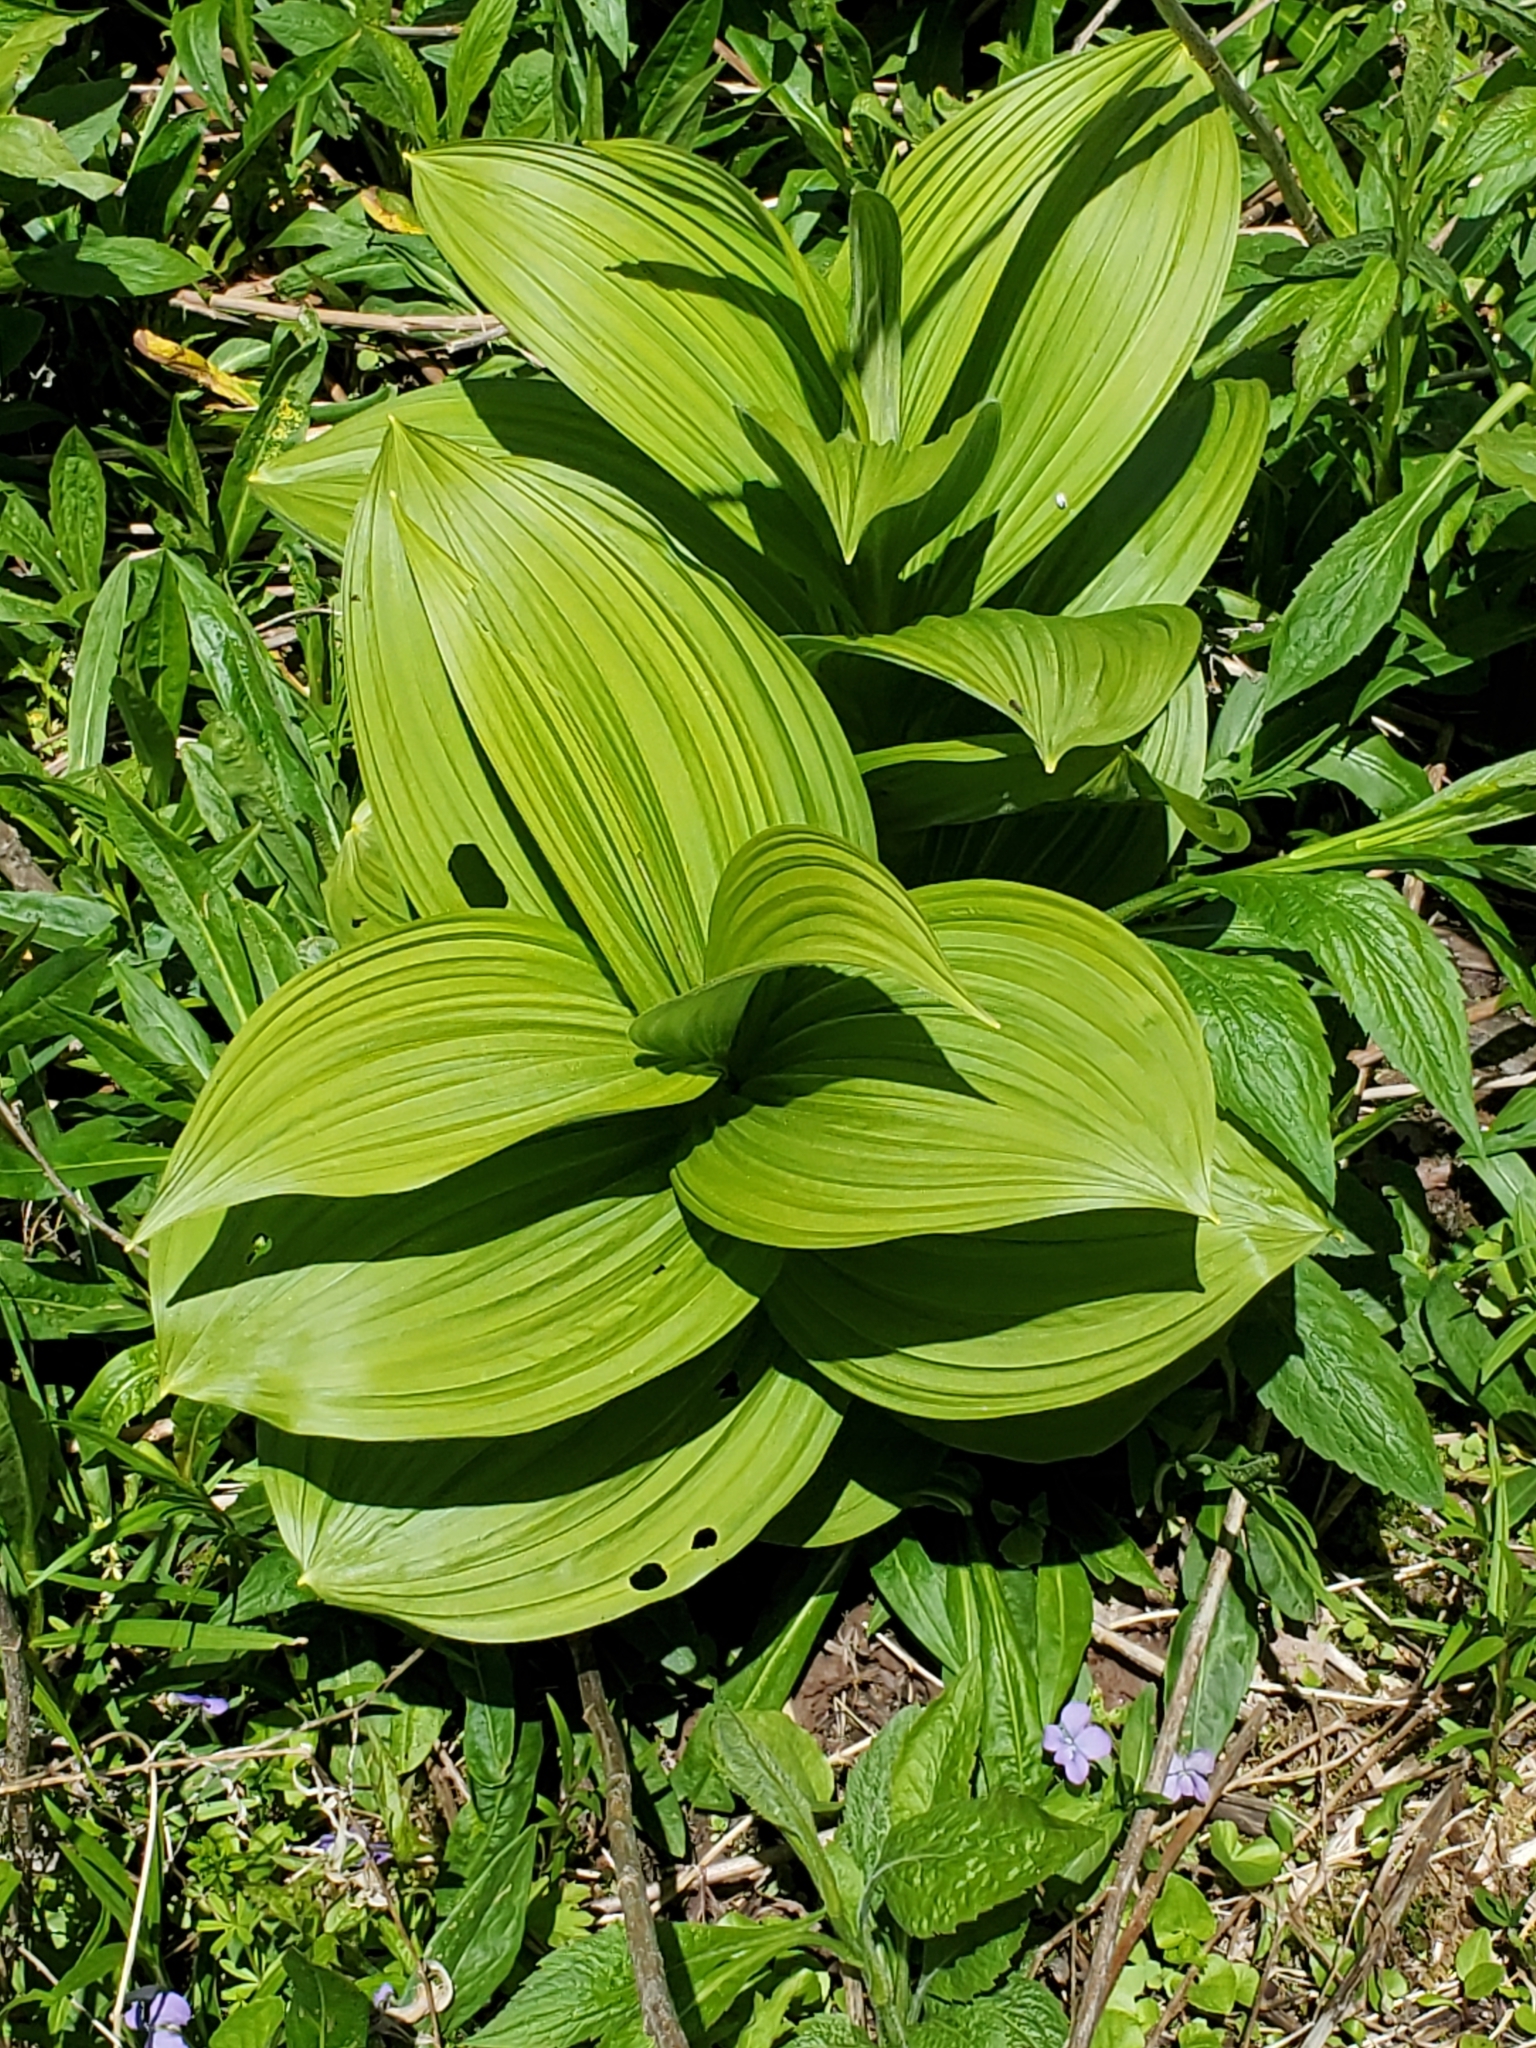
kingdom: Plantae
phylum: Tracheophyta
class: Liliopsida
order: Liliales
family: Melanthiaceae
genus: Veratrum
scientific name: Veratrum viride
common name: American false hellebore
